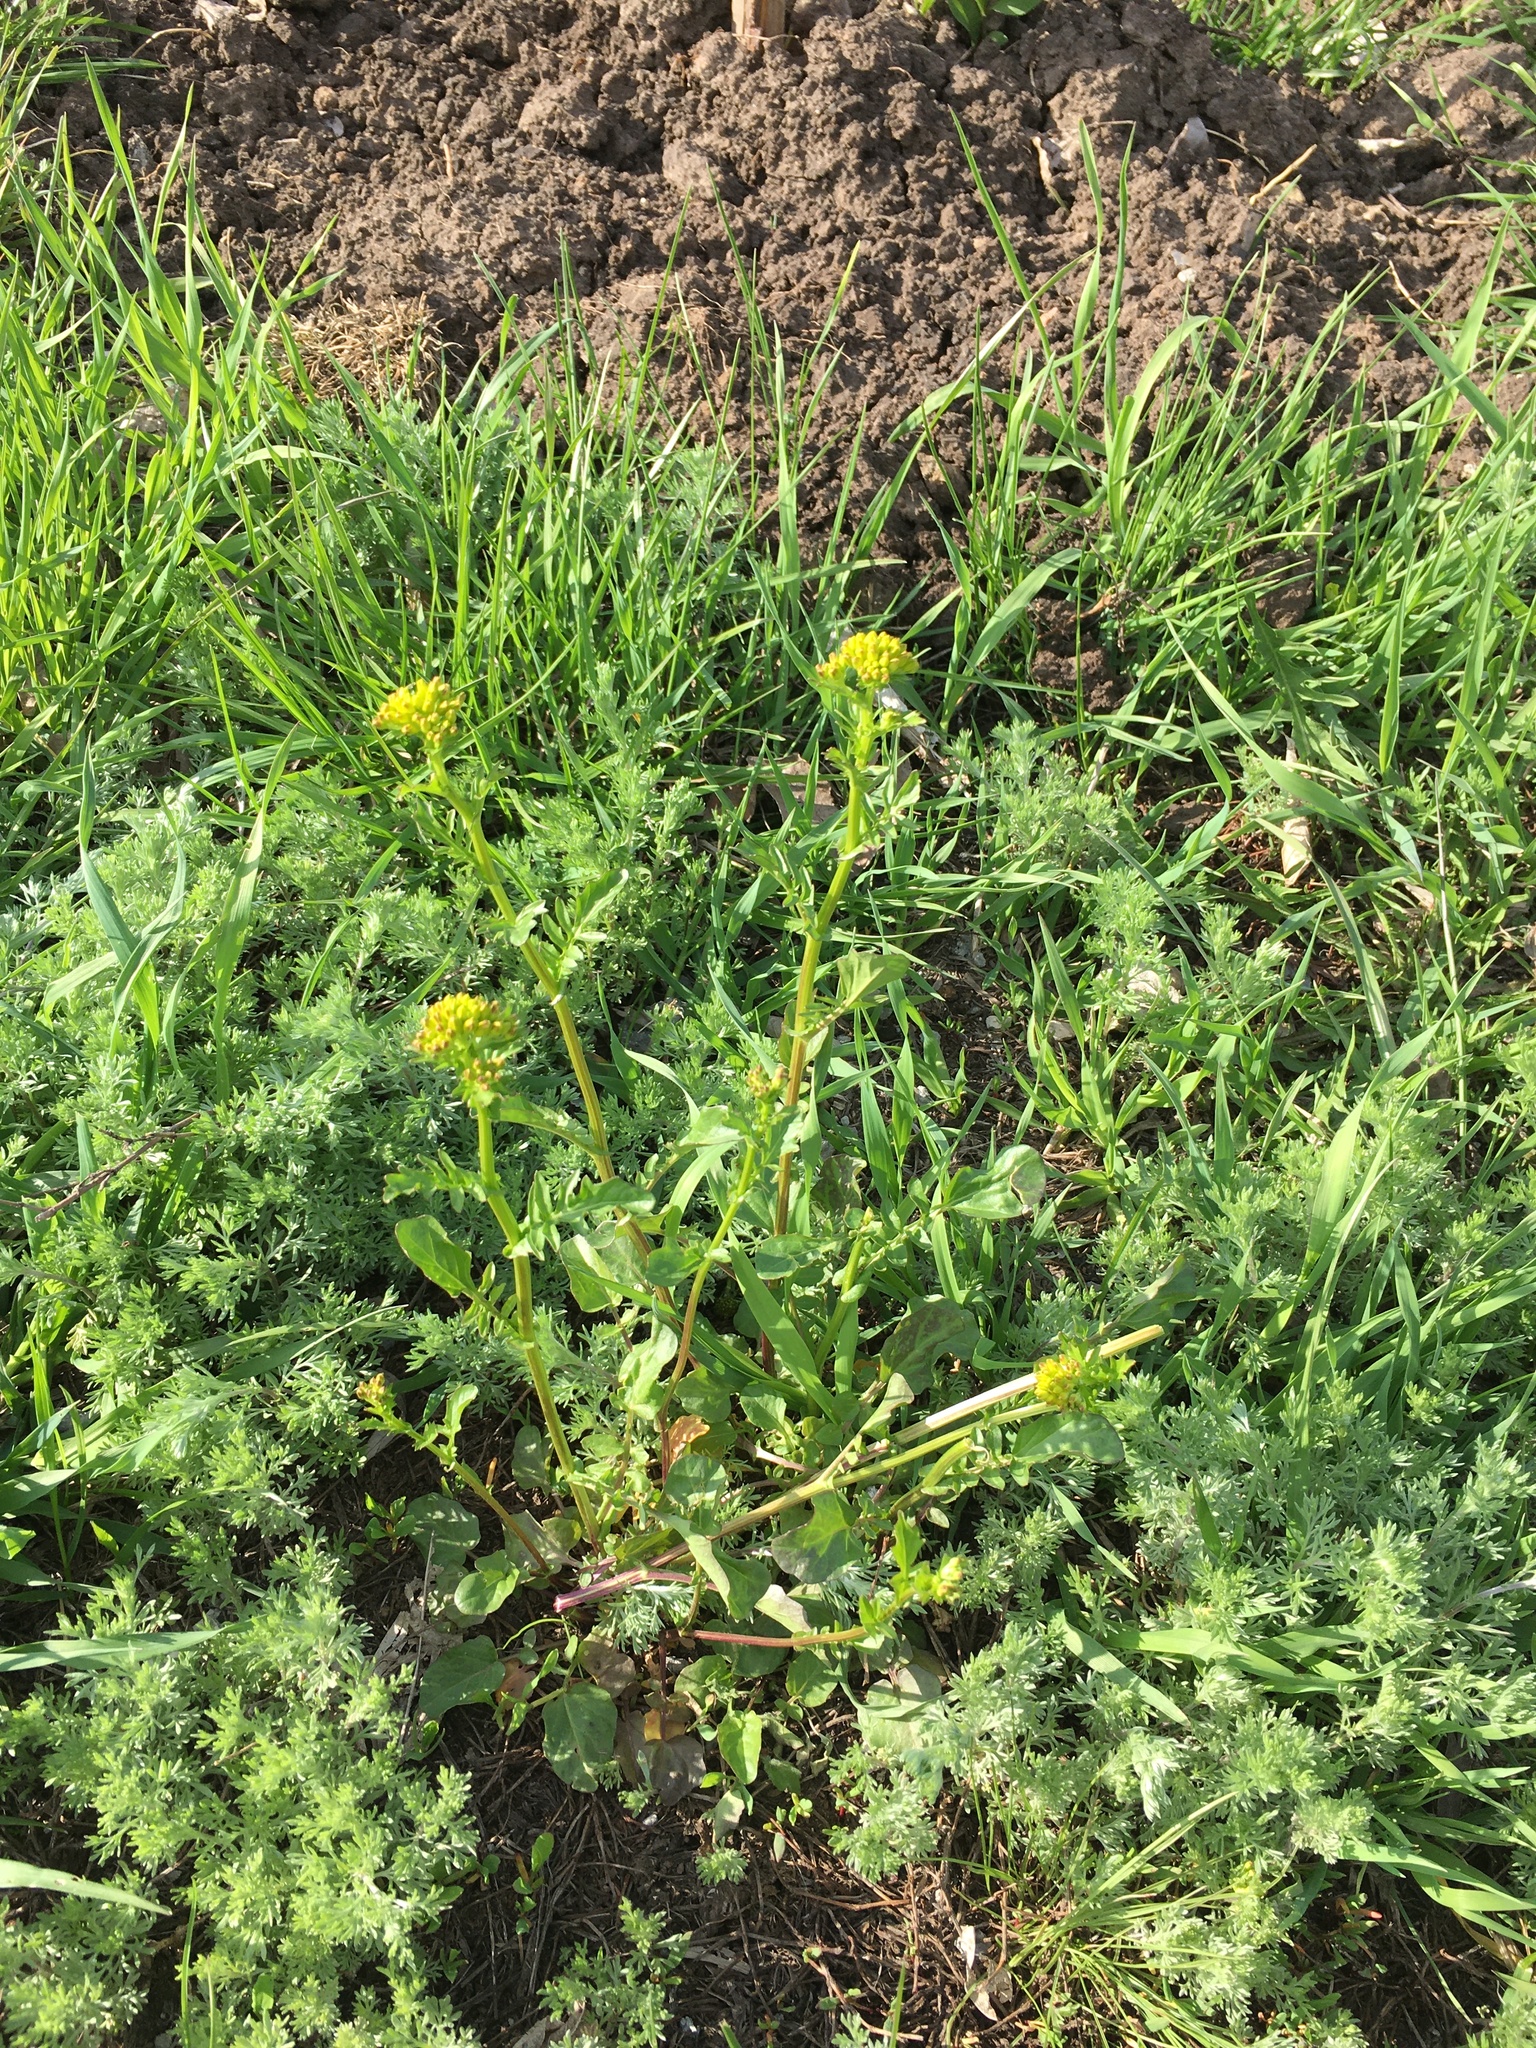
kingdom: Plantae
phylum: Tracheophyta
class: Magnoliopsida
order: Brassicales
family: Brassicaceae
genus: Barbarea
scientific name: Barbarea vulgaris
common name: Cressy-greens
